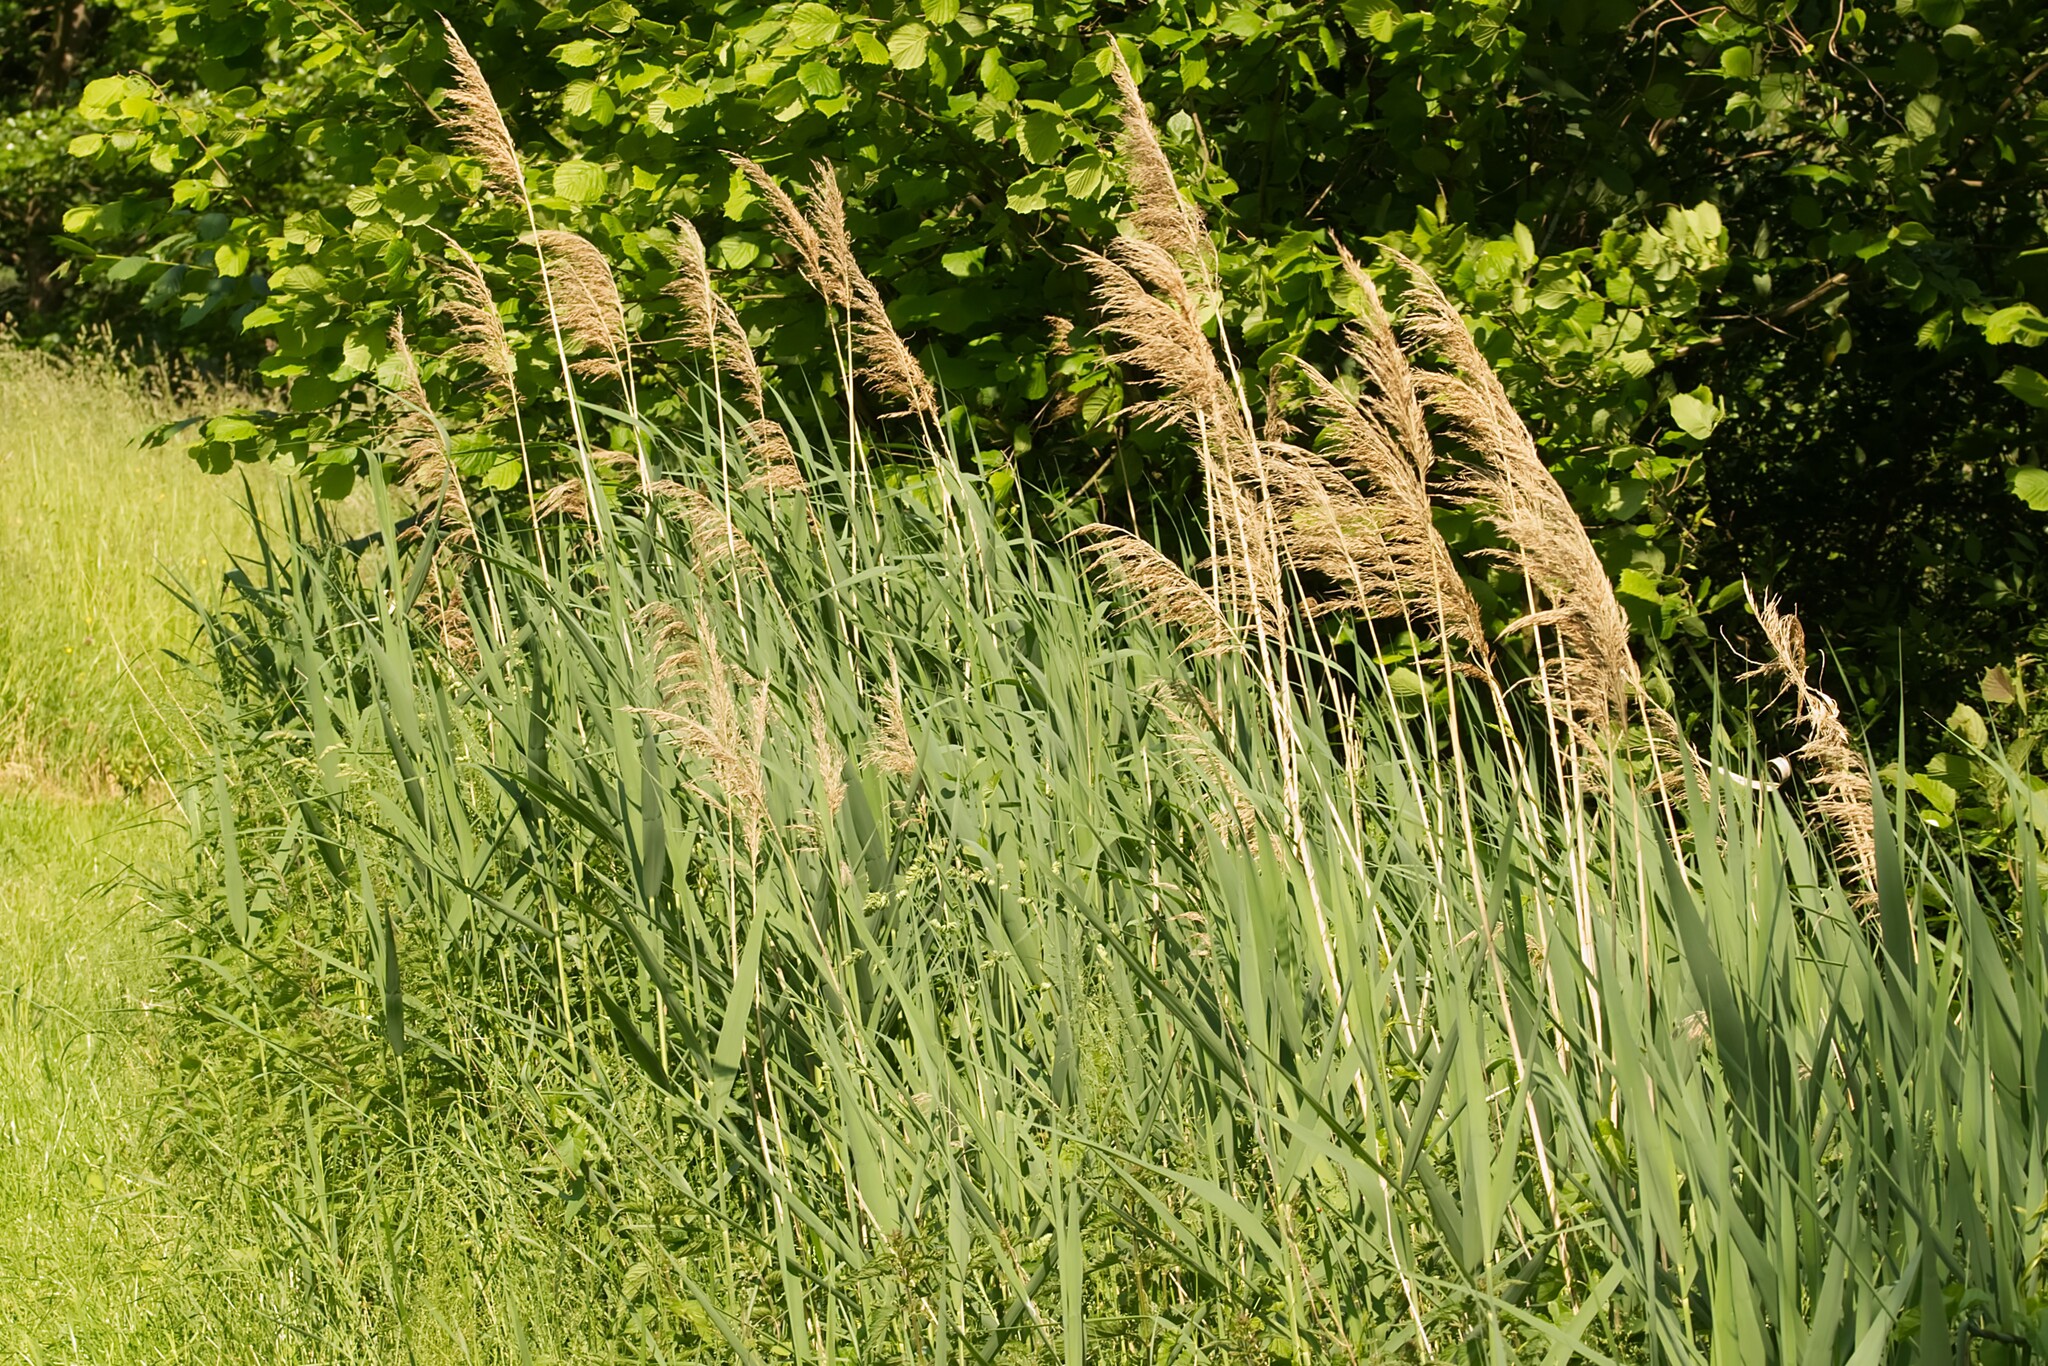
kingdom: Plantae
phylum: Tracheophyta
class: Liliopsida
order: Poales
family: Poaceae
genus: Phragmites
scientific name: Phragmites australis
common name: Common reed
